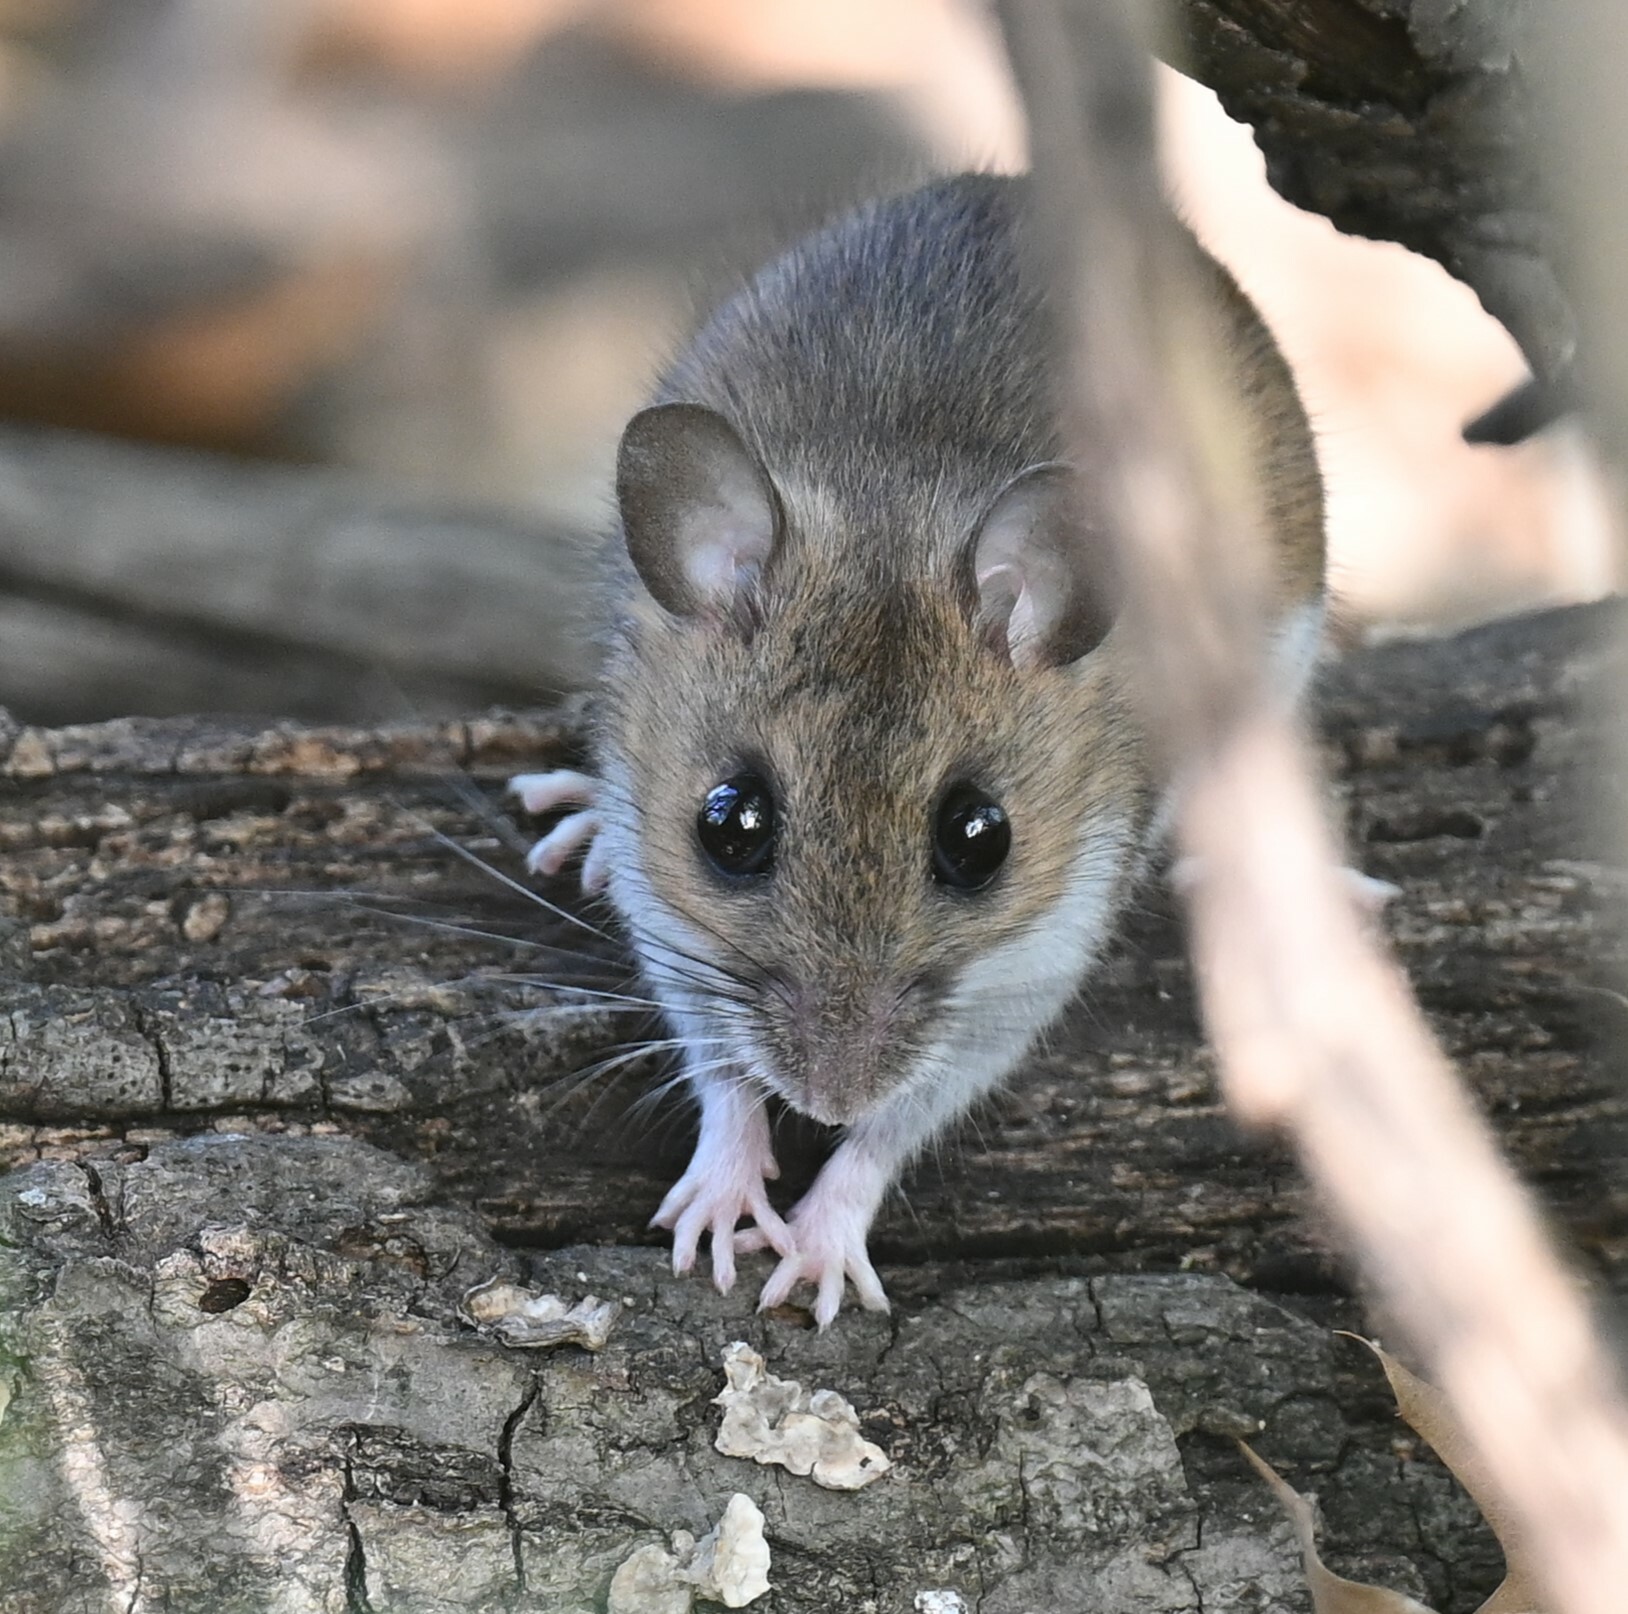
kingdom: Animalia
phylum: Chordata
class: Mammalia
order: Rodentia
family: Cricetidae
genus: Peromyscus
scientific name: Peromyscus leucopus
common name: White-footed deermouse
